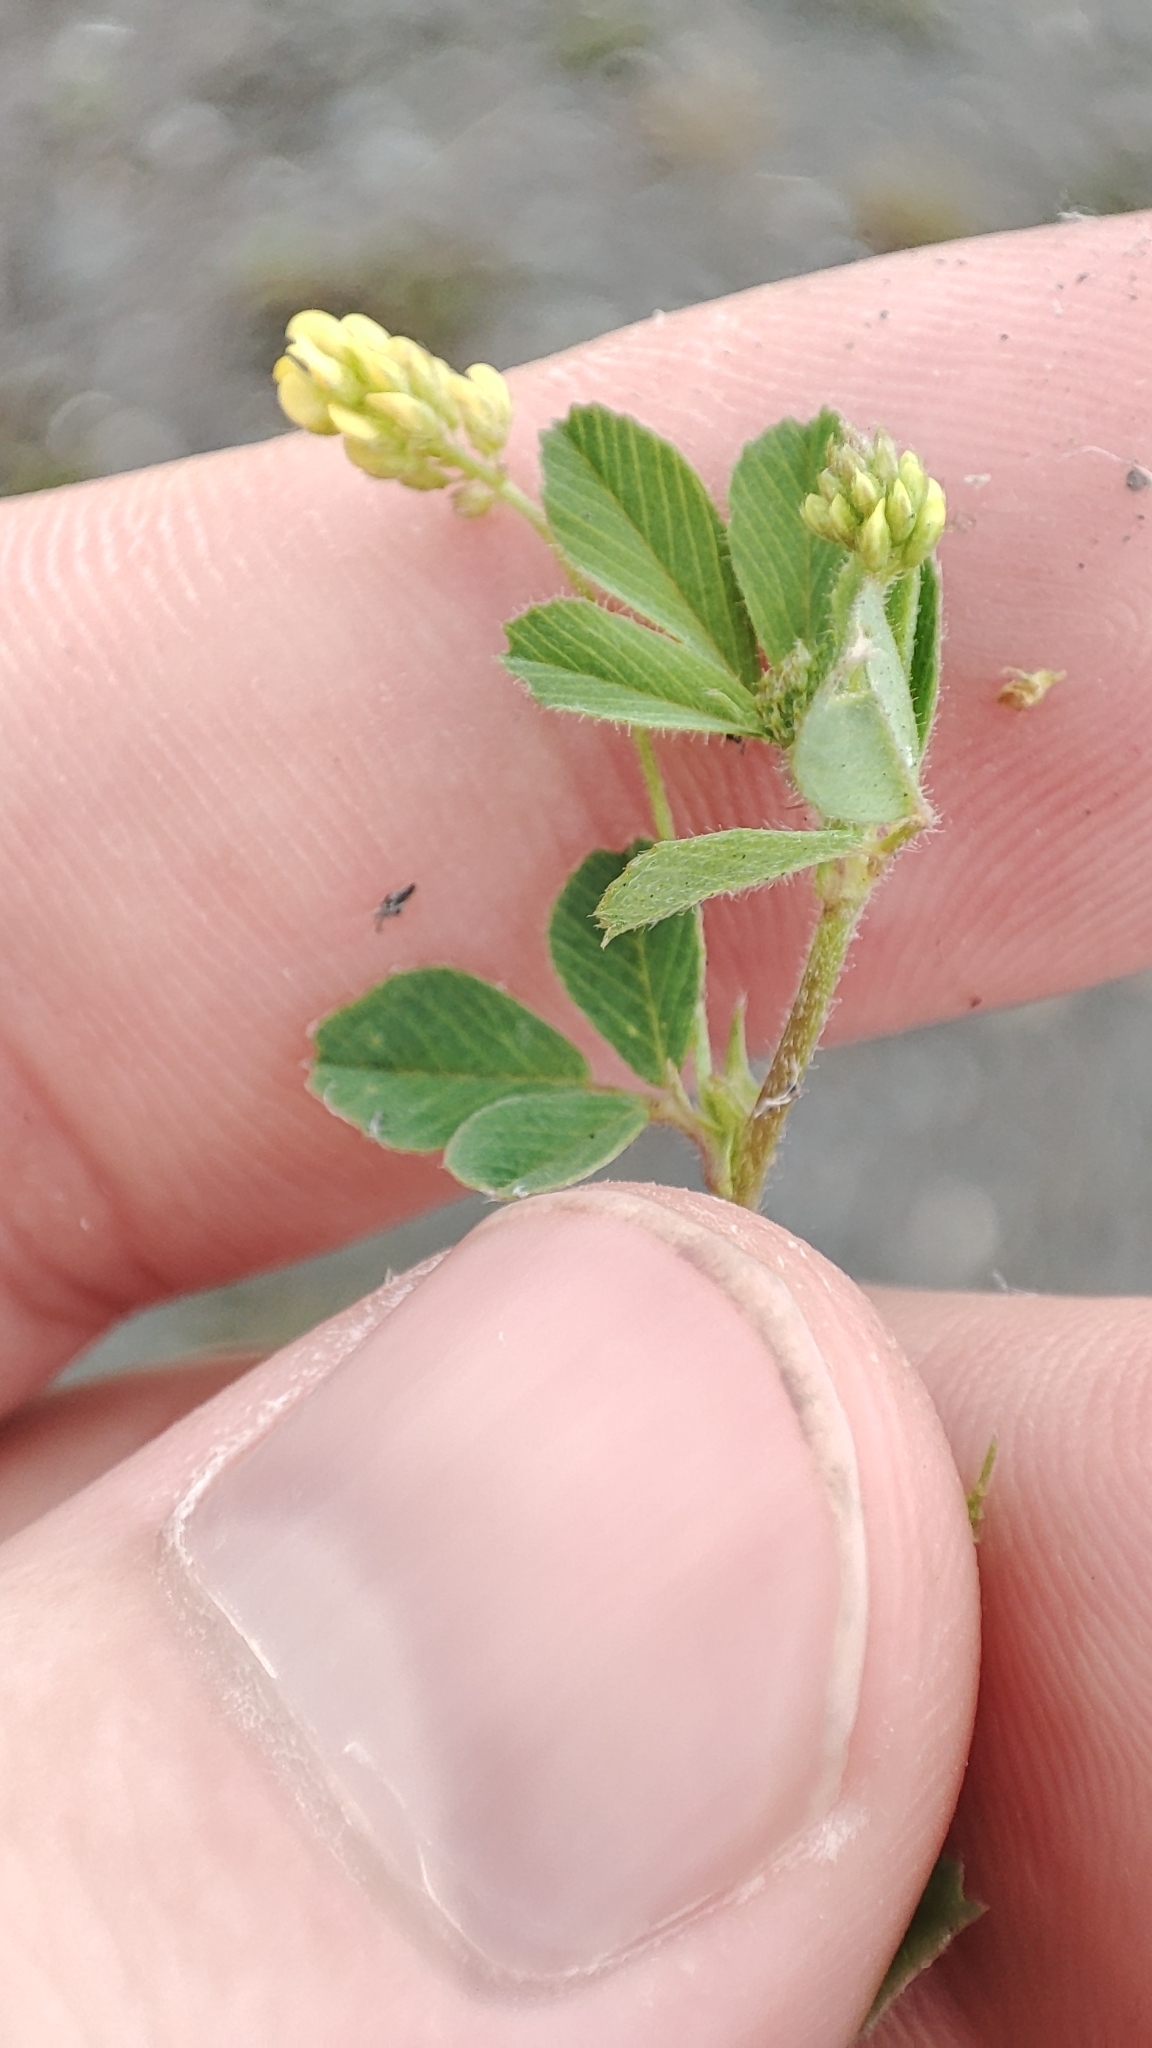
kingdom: Plantae
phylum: Tracheophyta
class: Magnoliopsida
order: Fabales
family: Fabaceae
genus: Medicago
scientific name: Medicago lupulina
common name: Black medick
